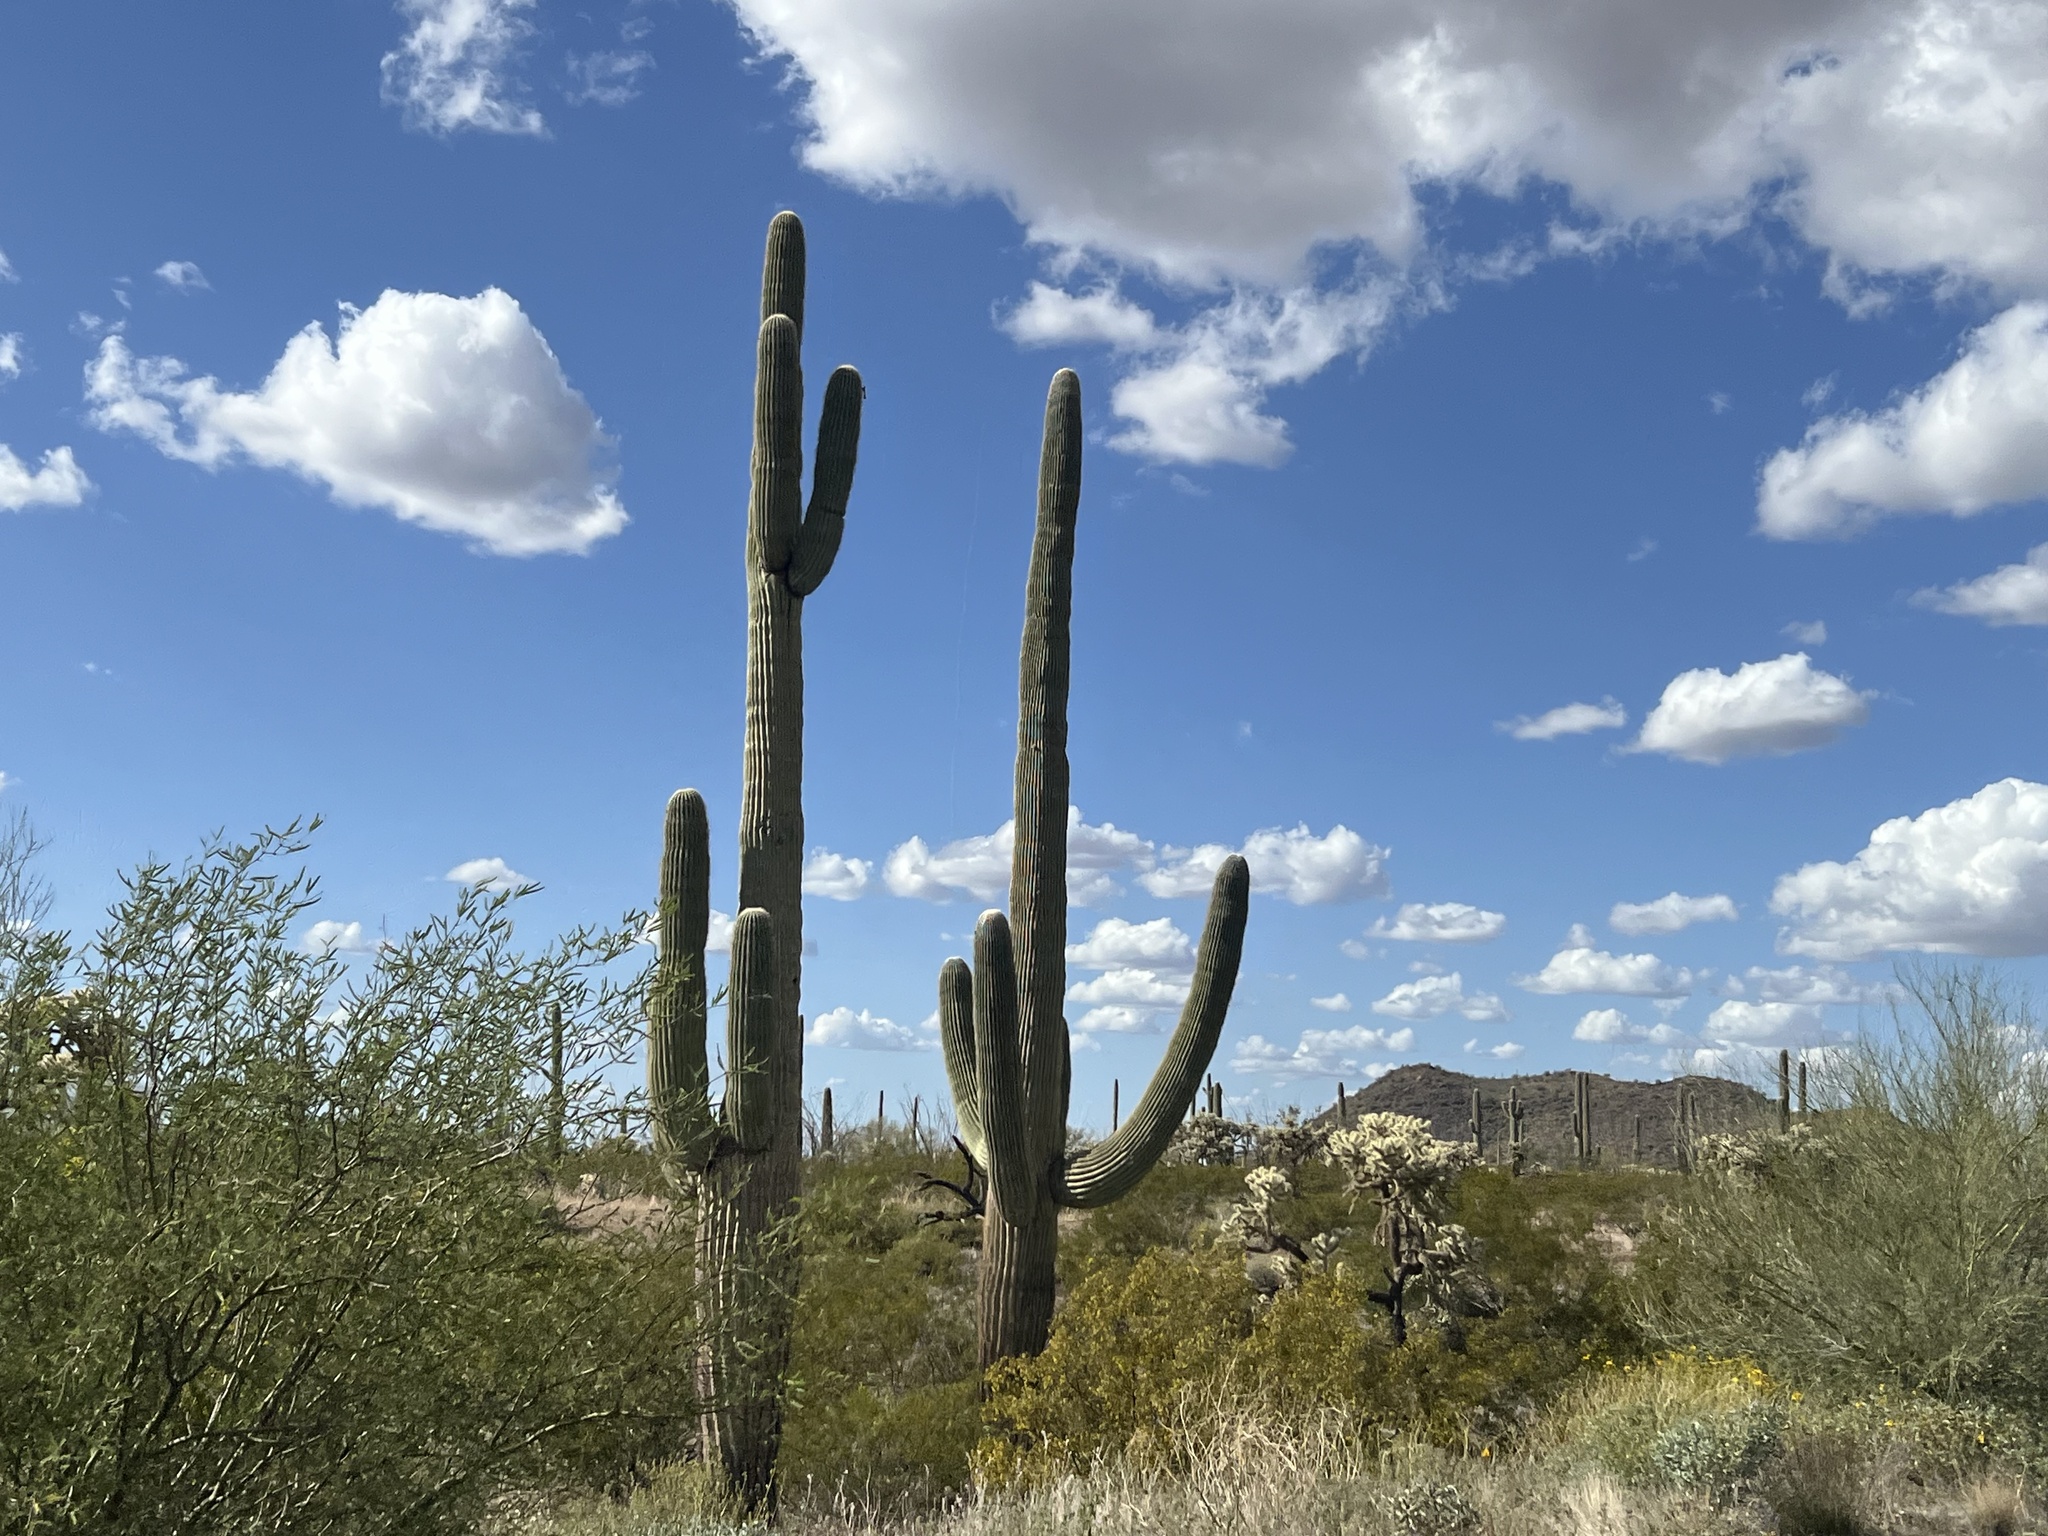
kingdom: Plantae
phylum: Tracheophyta
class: Magnoliopsida
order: Caryophyllales
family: Cactaceae
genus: Carnegiea
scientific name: Carnegiea gigantea
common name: Saguaro
